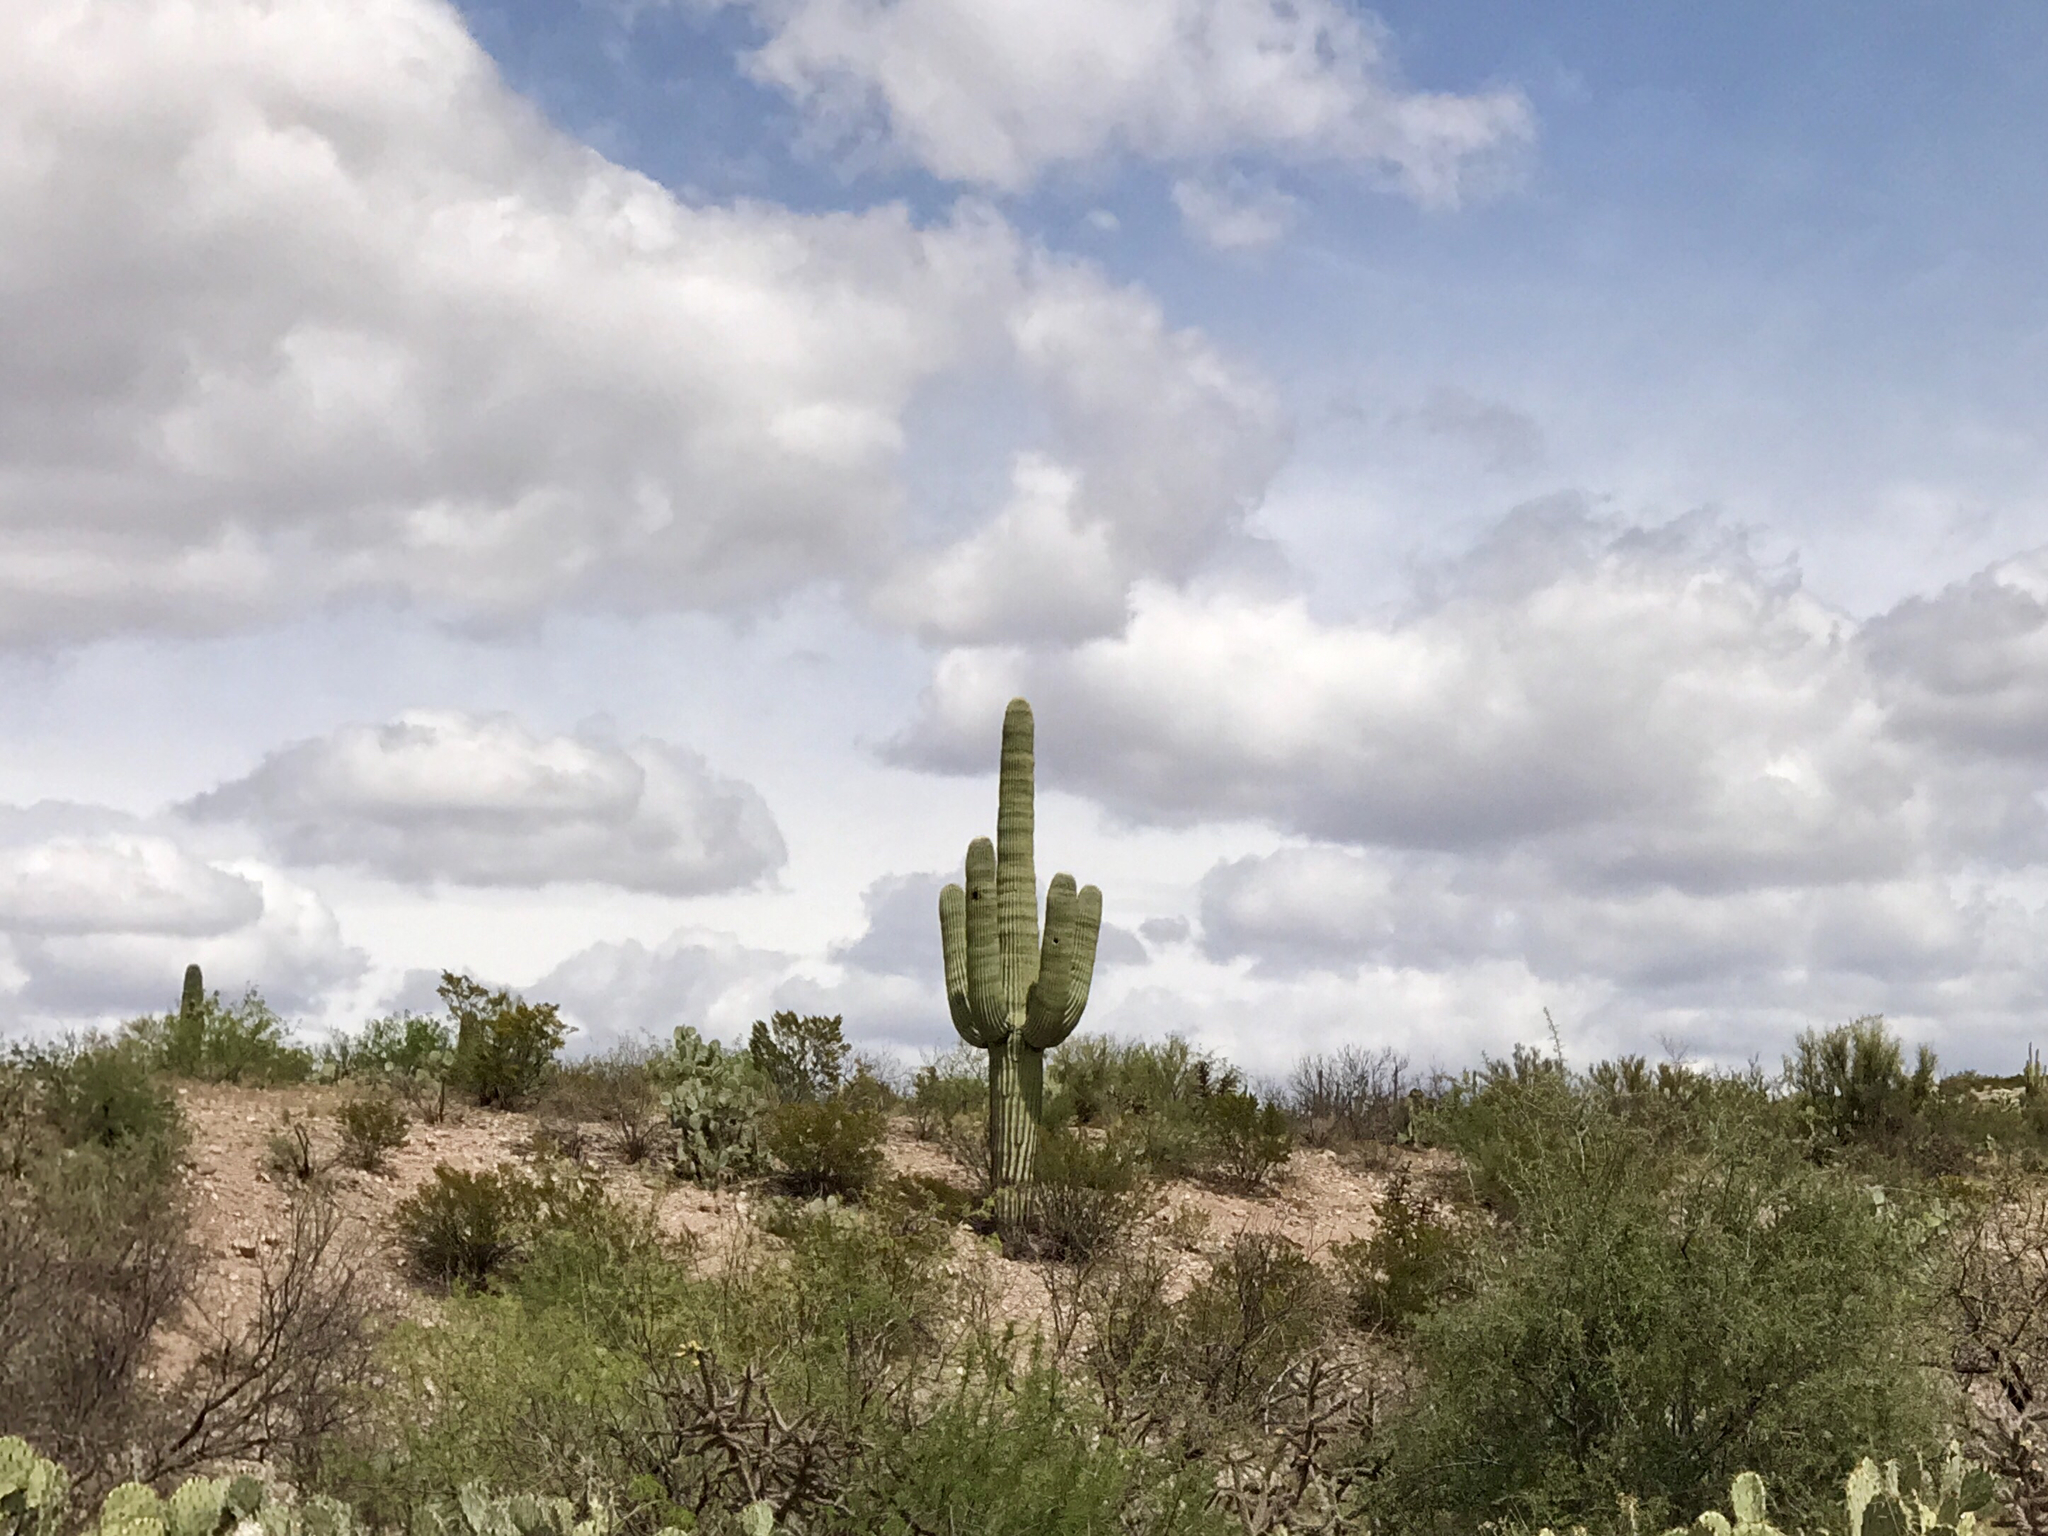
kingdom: Plantae
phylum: Tracheophyta
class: Magnoliopsida
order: Caryophyllales
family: Cactaceae
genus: Carnegiea
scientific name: Carnegiea gigantea
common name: Saguaro
